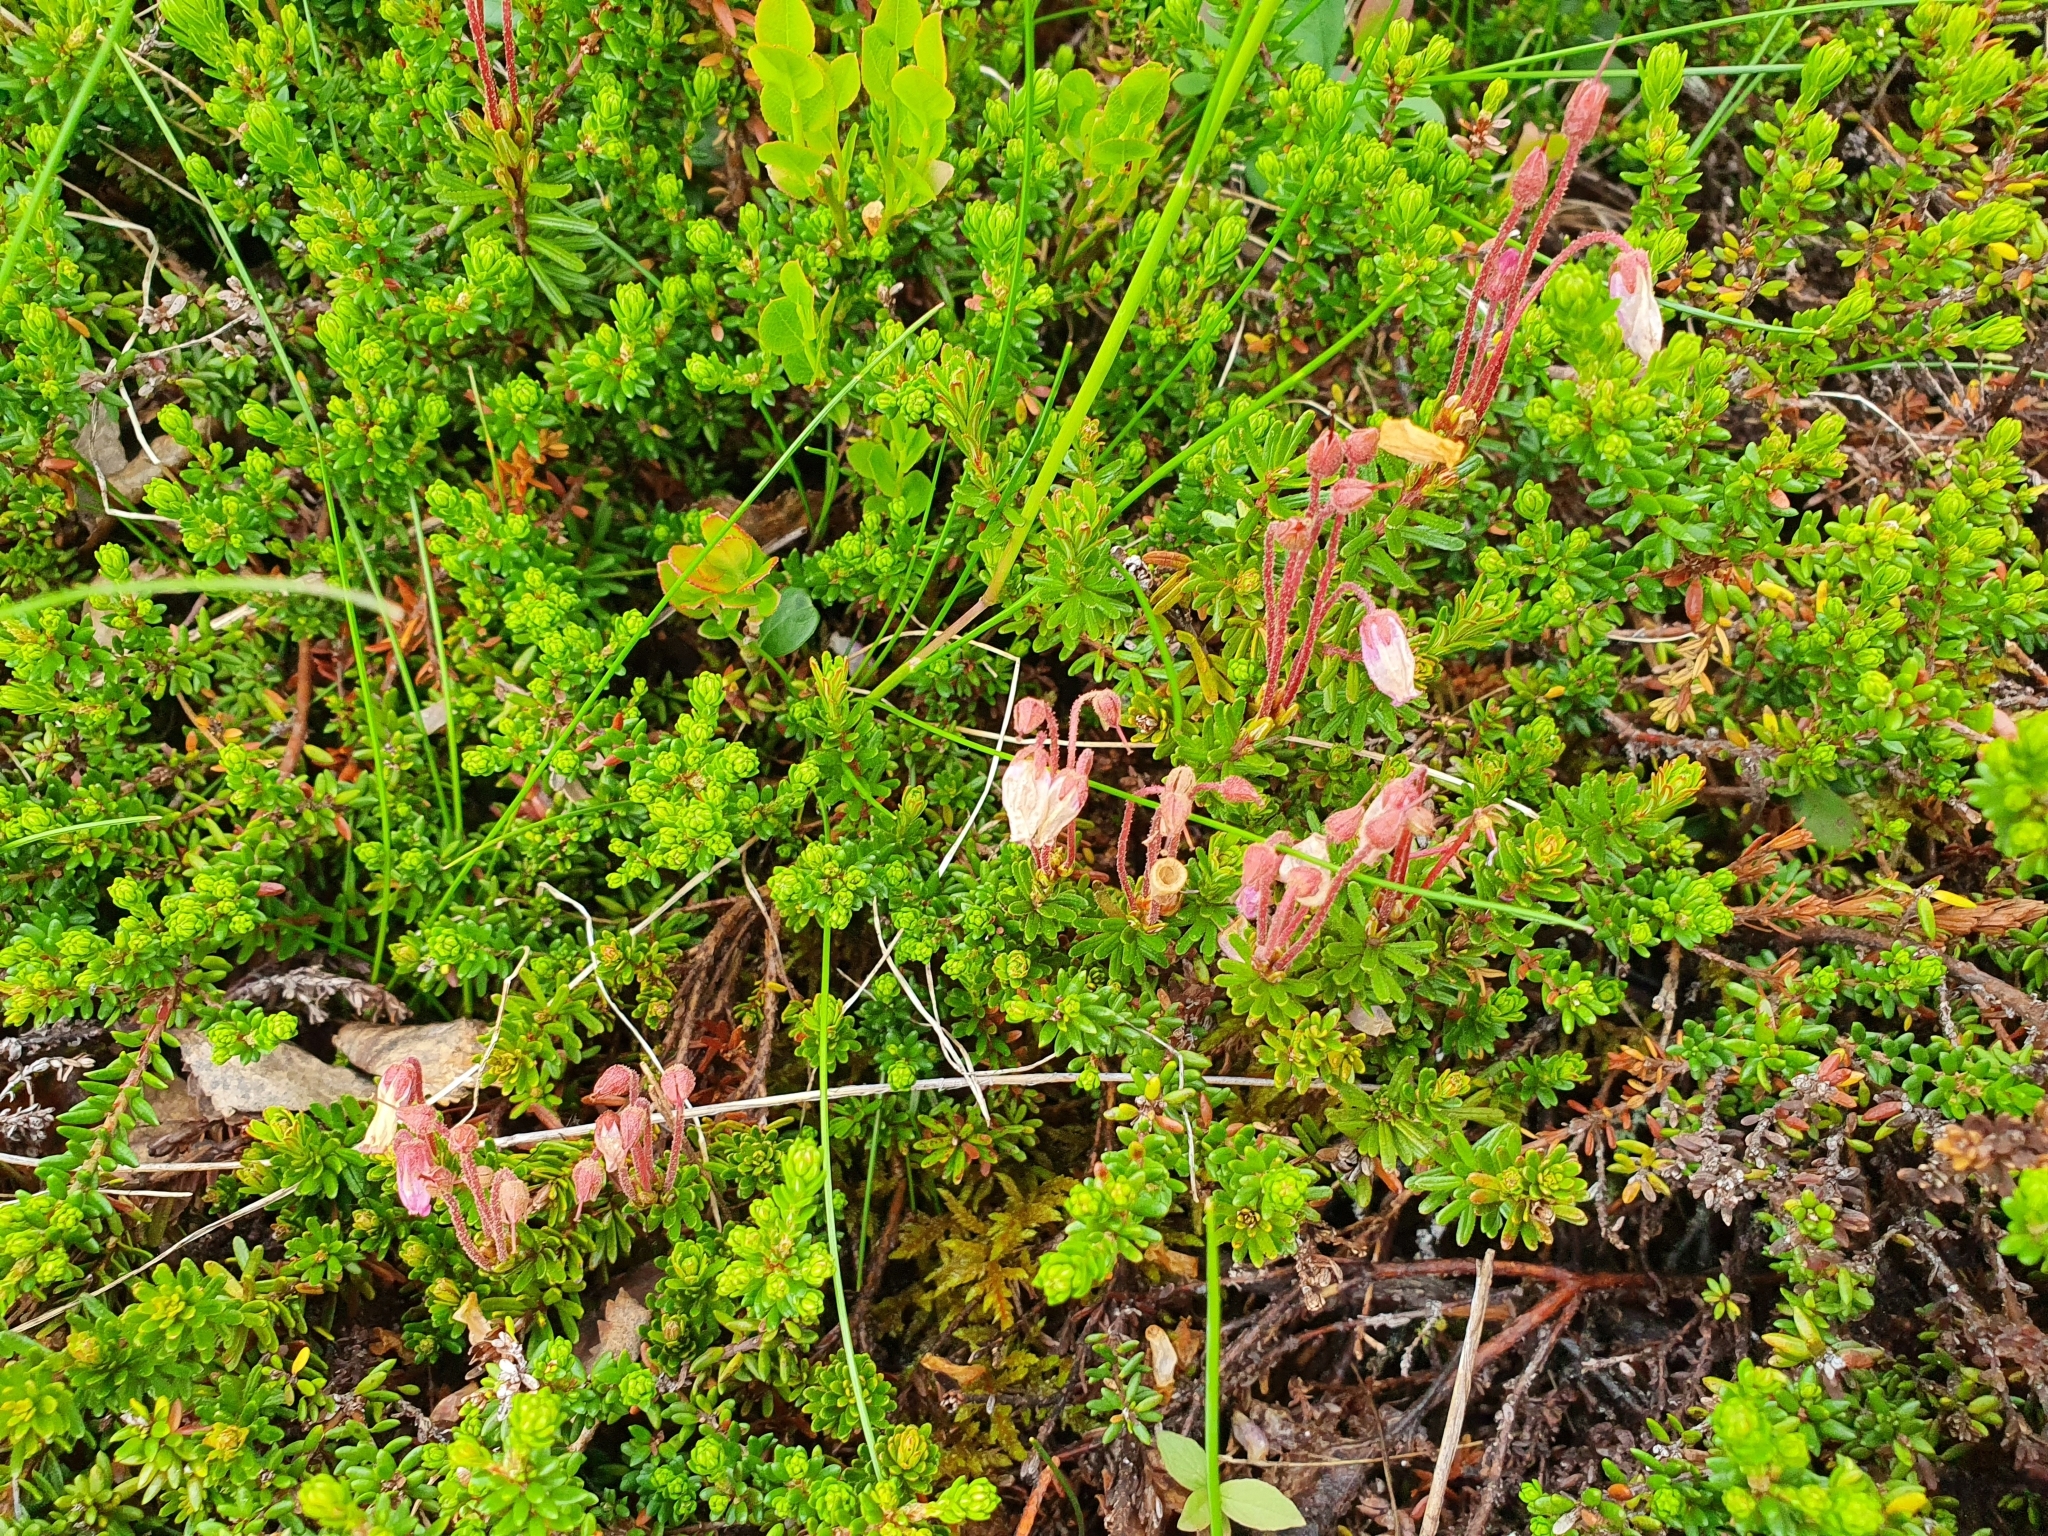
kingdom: Plantae
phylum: Tracheophyta
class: Magnoliopsida
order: Ericales
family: Ericaceae
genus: Phyllodoce
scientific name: Phyllodoce caerulea
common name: Blue heath
